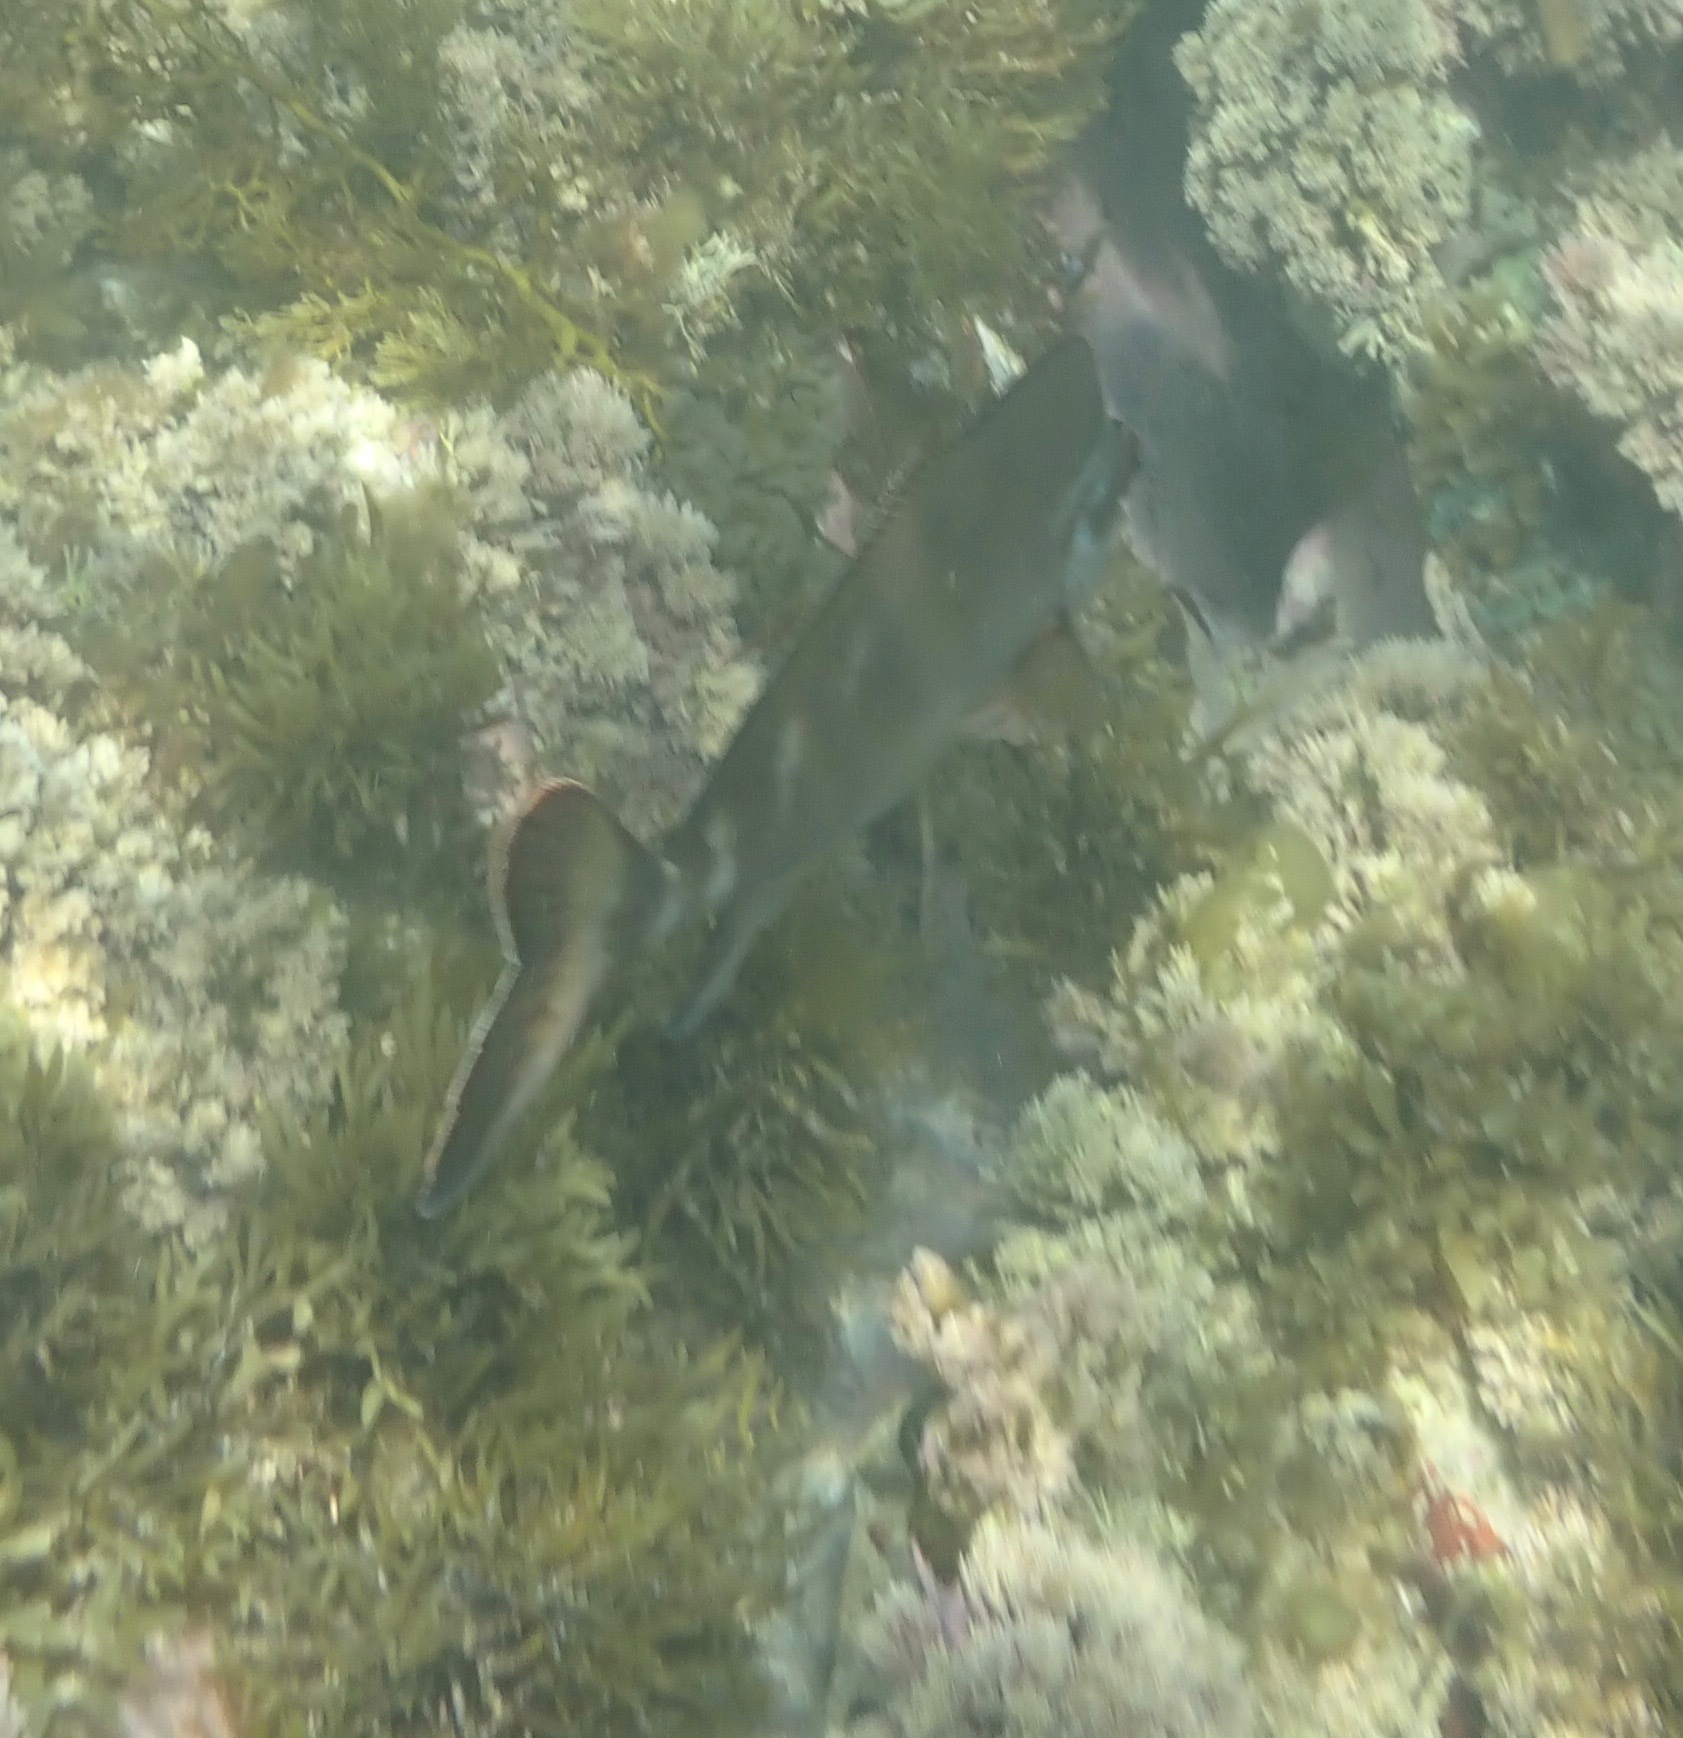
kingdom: Animalia
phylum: Chordata
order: Perciformes
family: Latridae
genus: Morwong
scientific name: Morwong fuscus
